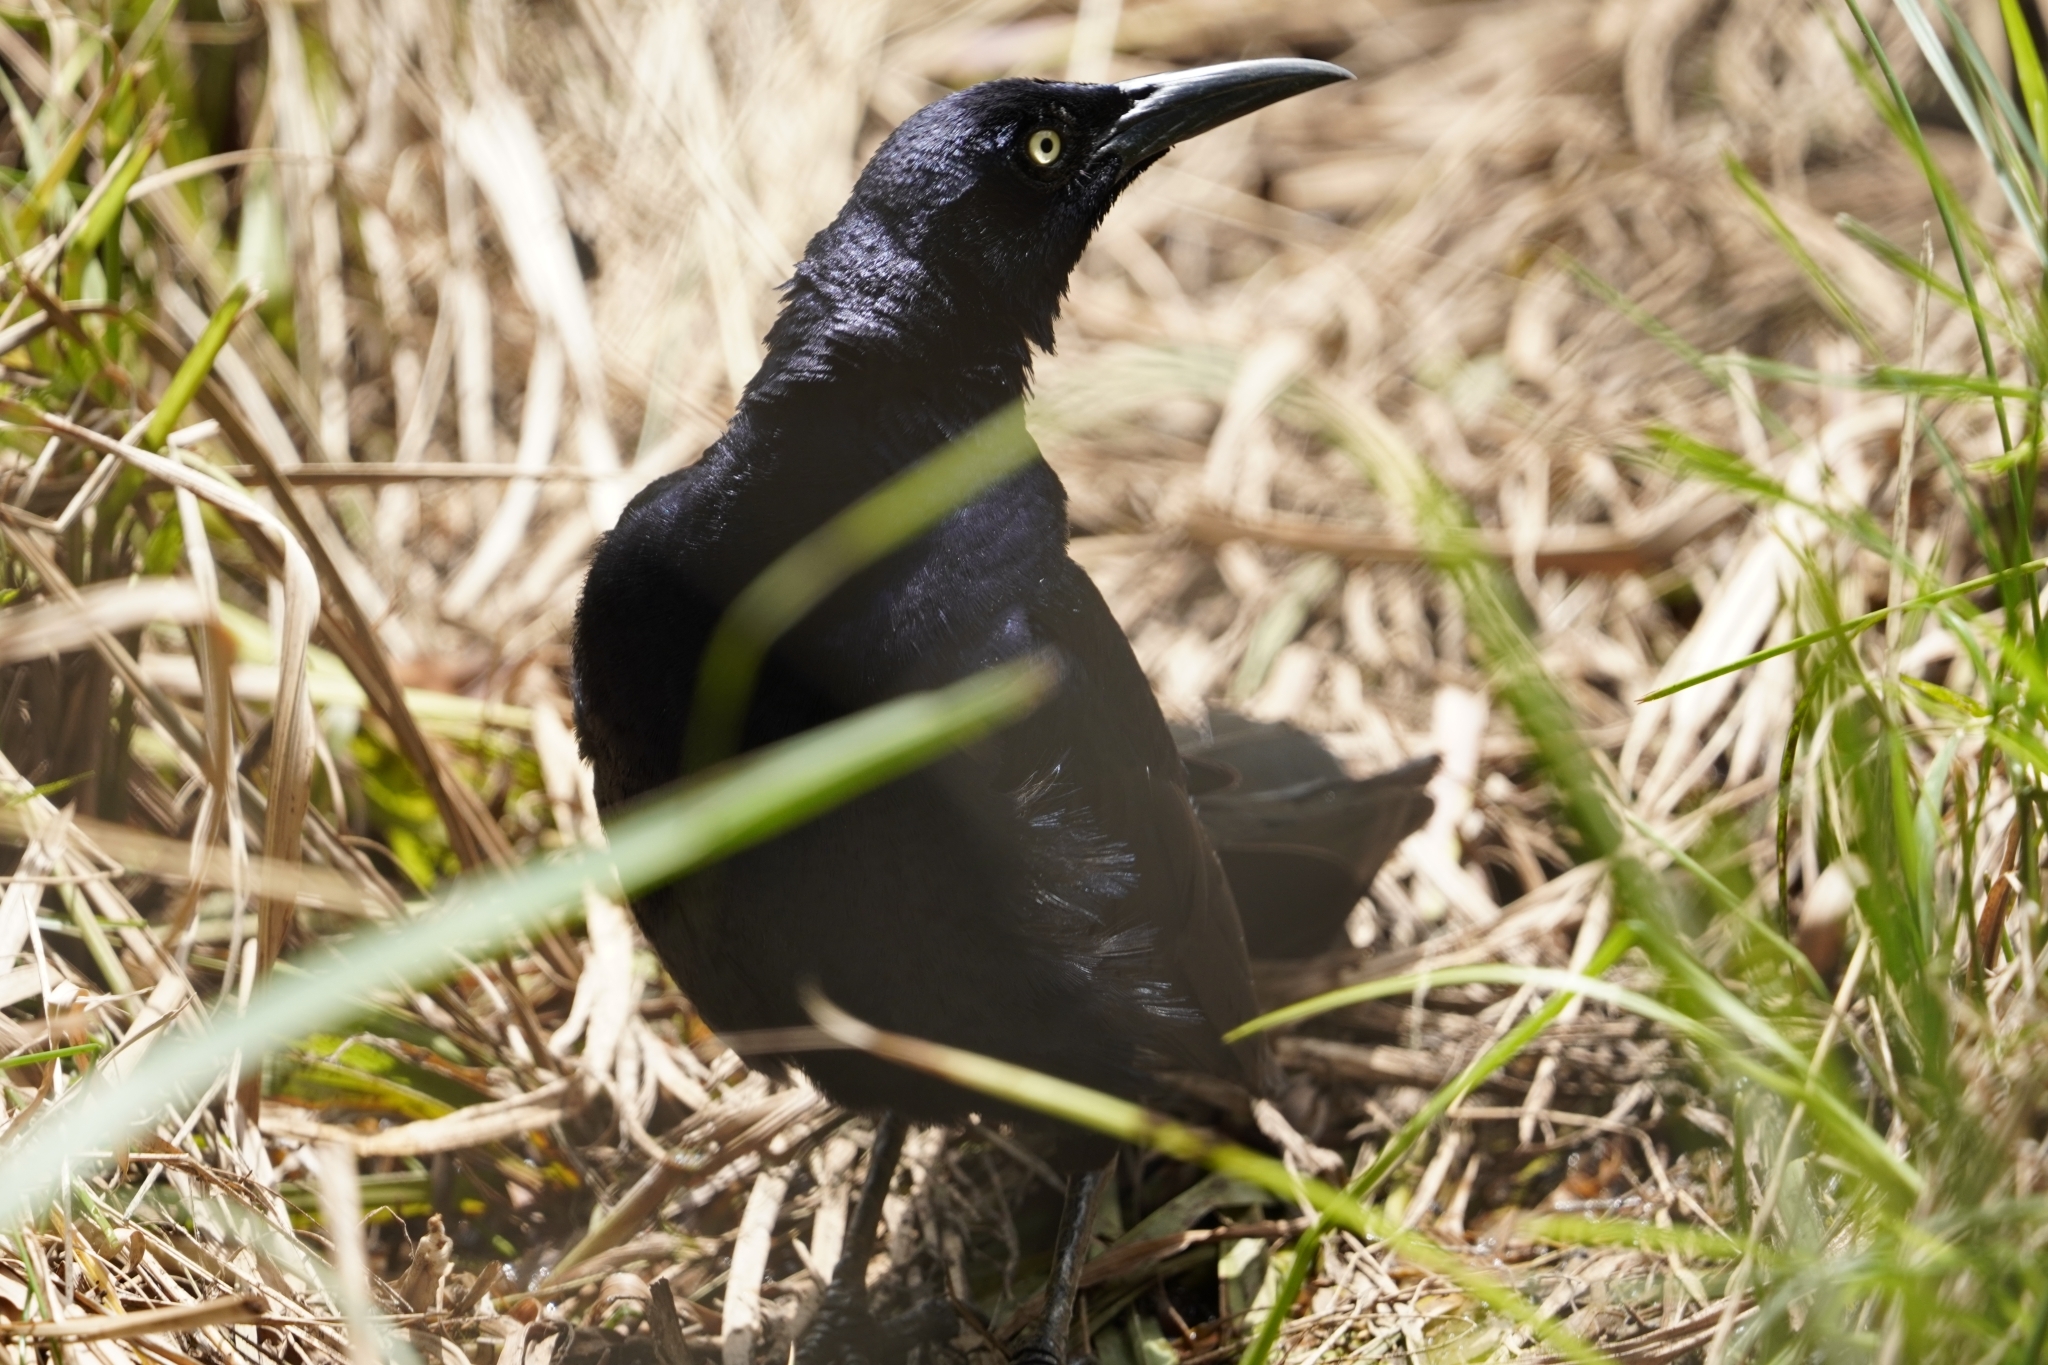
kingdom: Animalia
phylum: Chordata
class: Aves
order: Passeriformes
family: Icteridae
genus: Quiscalus
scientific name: Quiscalus mexicanus
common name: Great-tailed grackle
